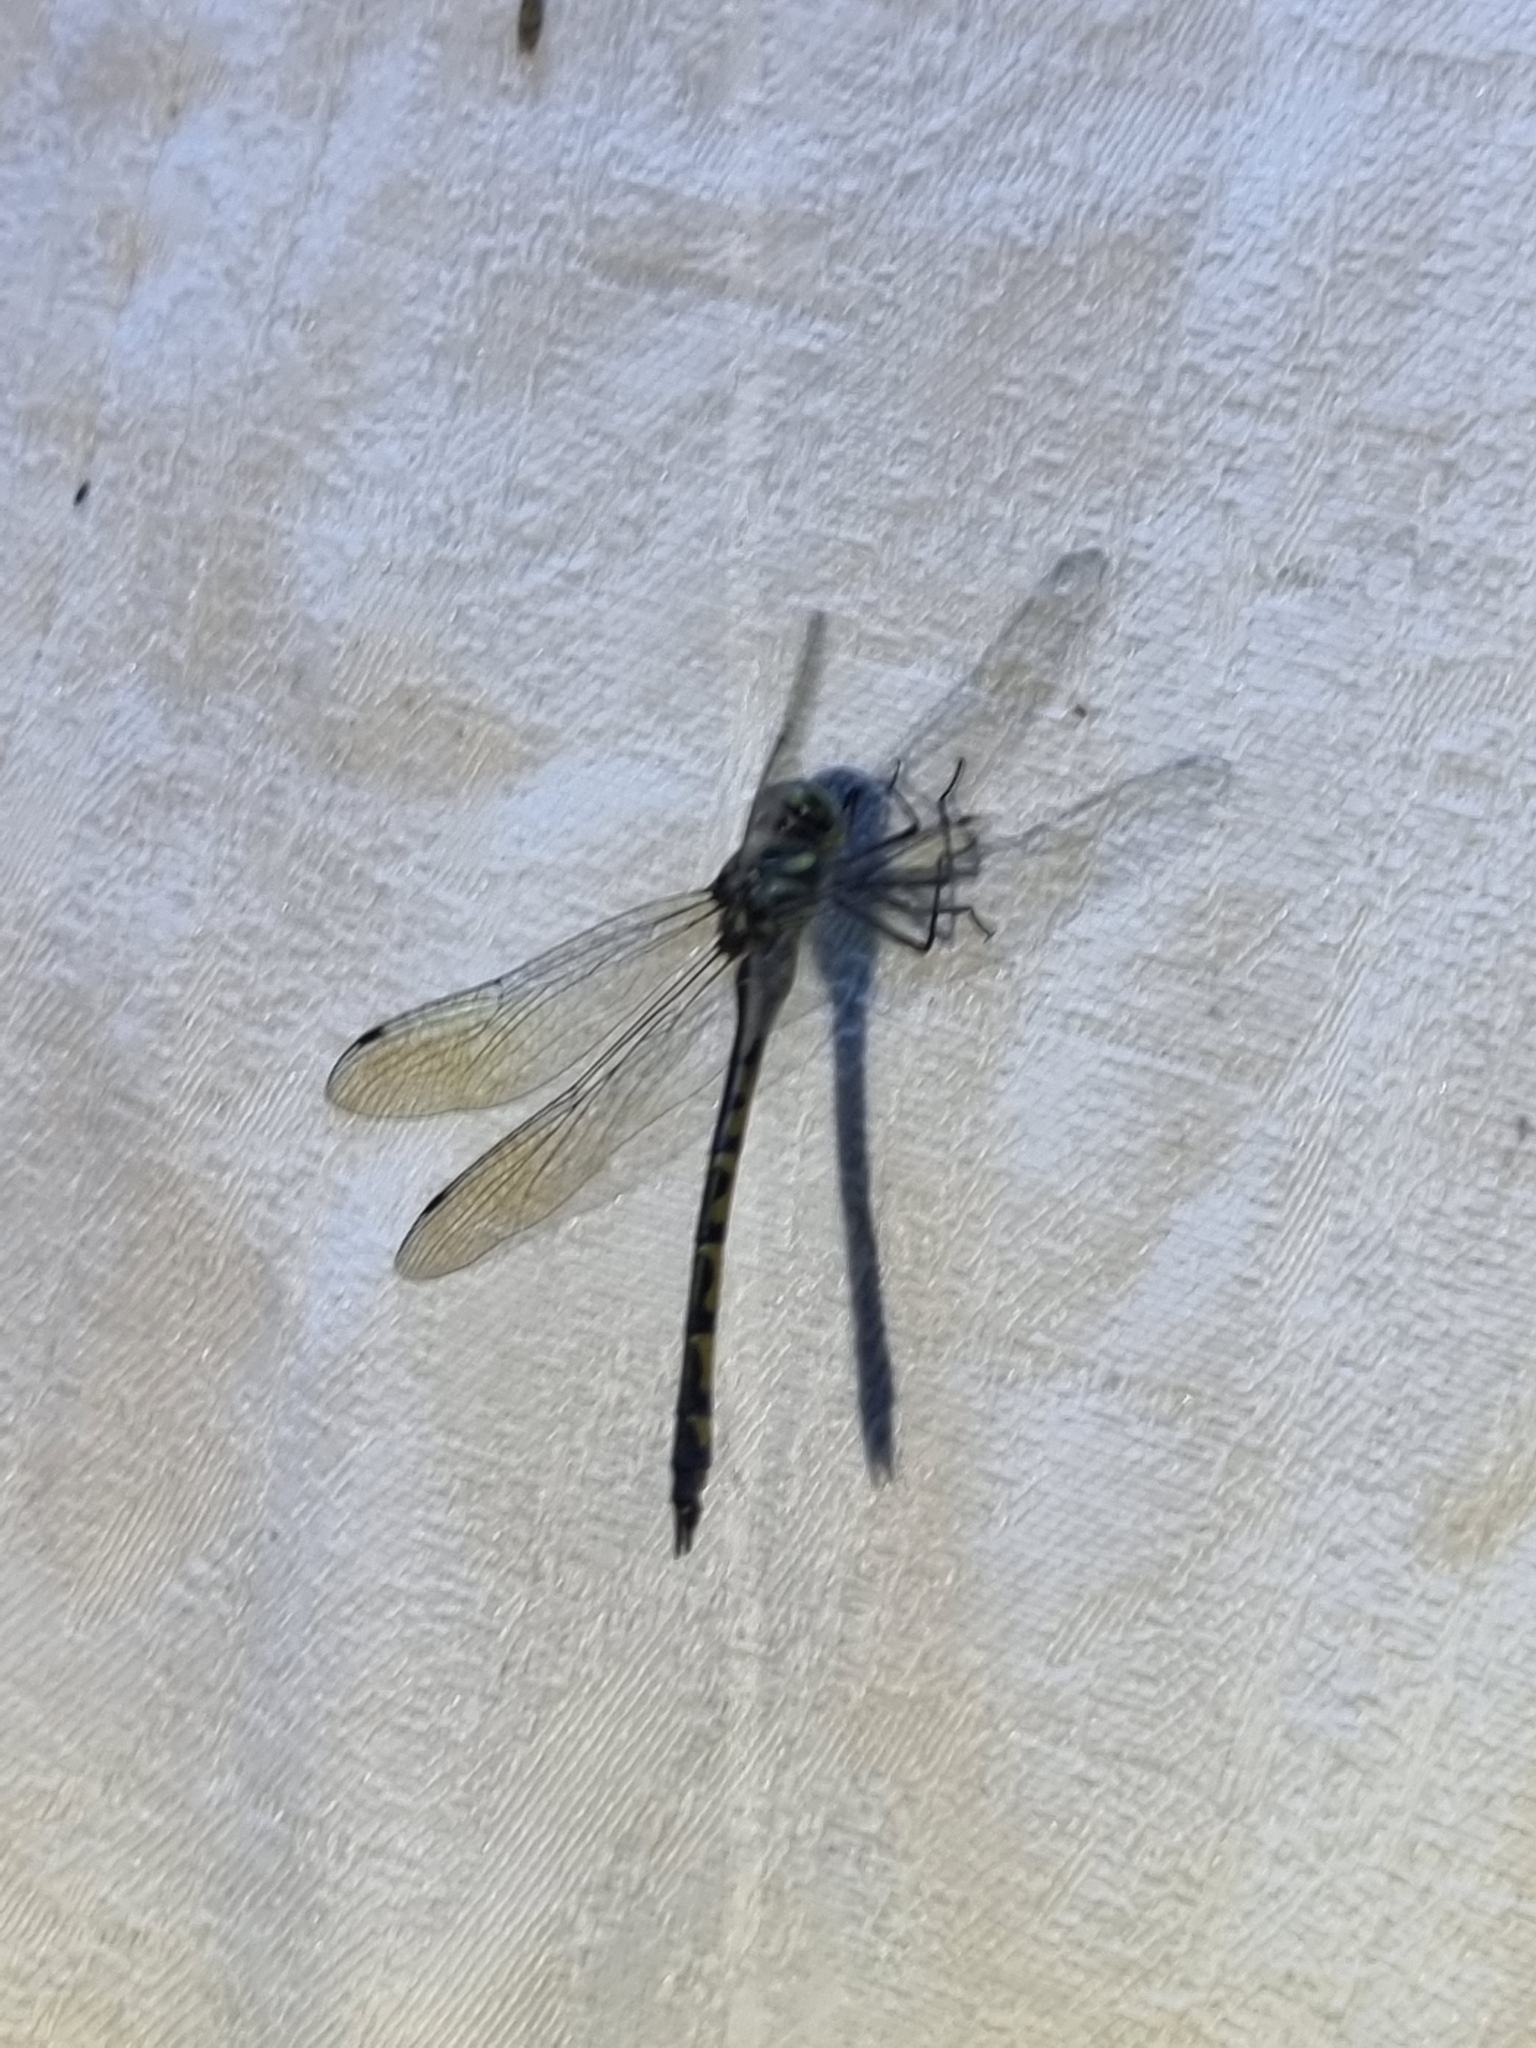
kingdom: Animalia
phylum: Arthropoda
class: Insecta
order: Odonata
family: Corduliidae
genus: Hemicordulia
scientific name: Hemicordulia australiae
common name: Sentry dragonfly
